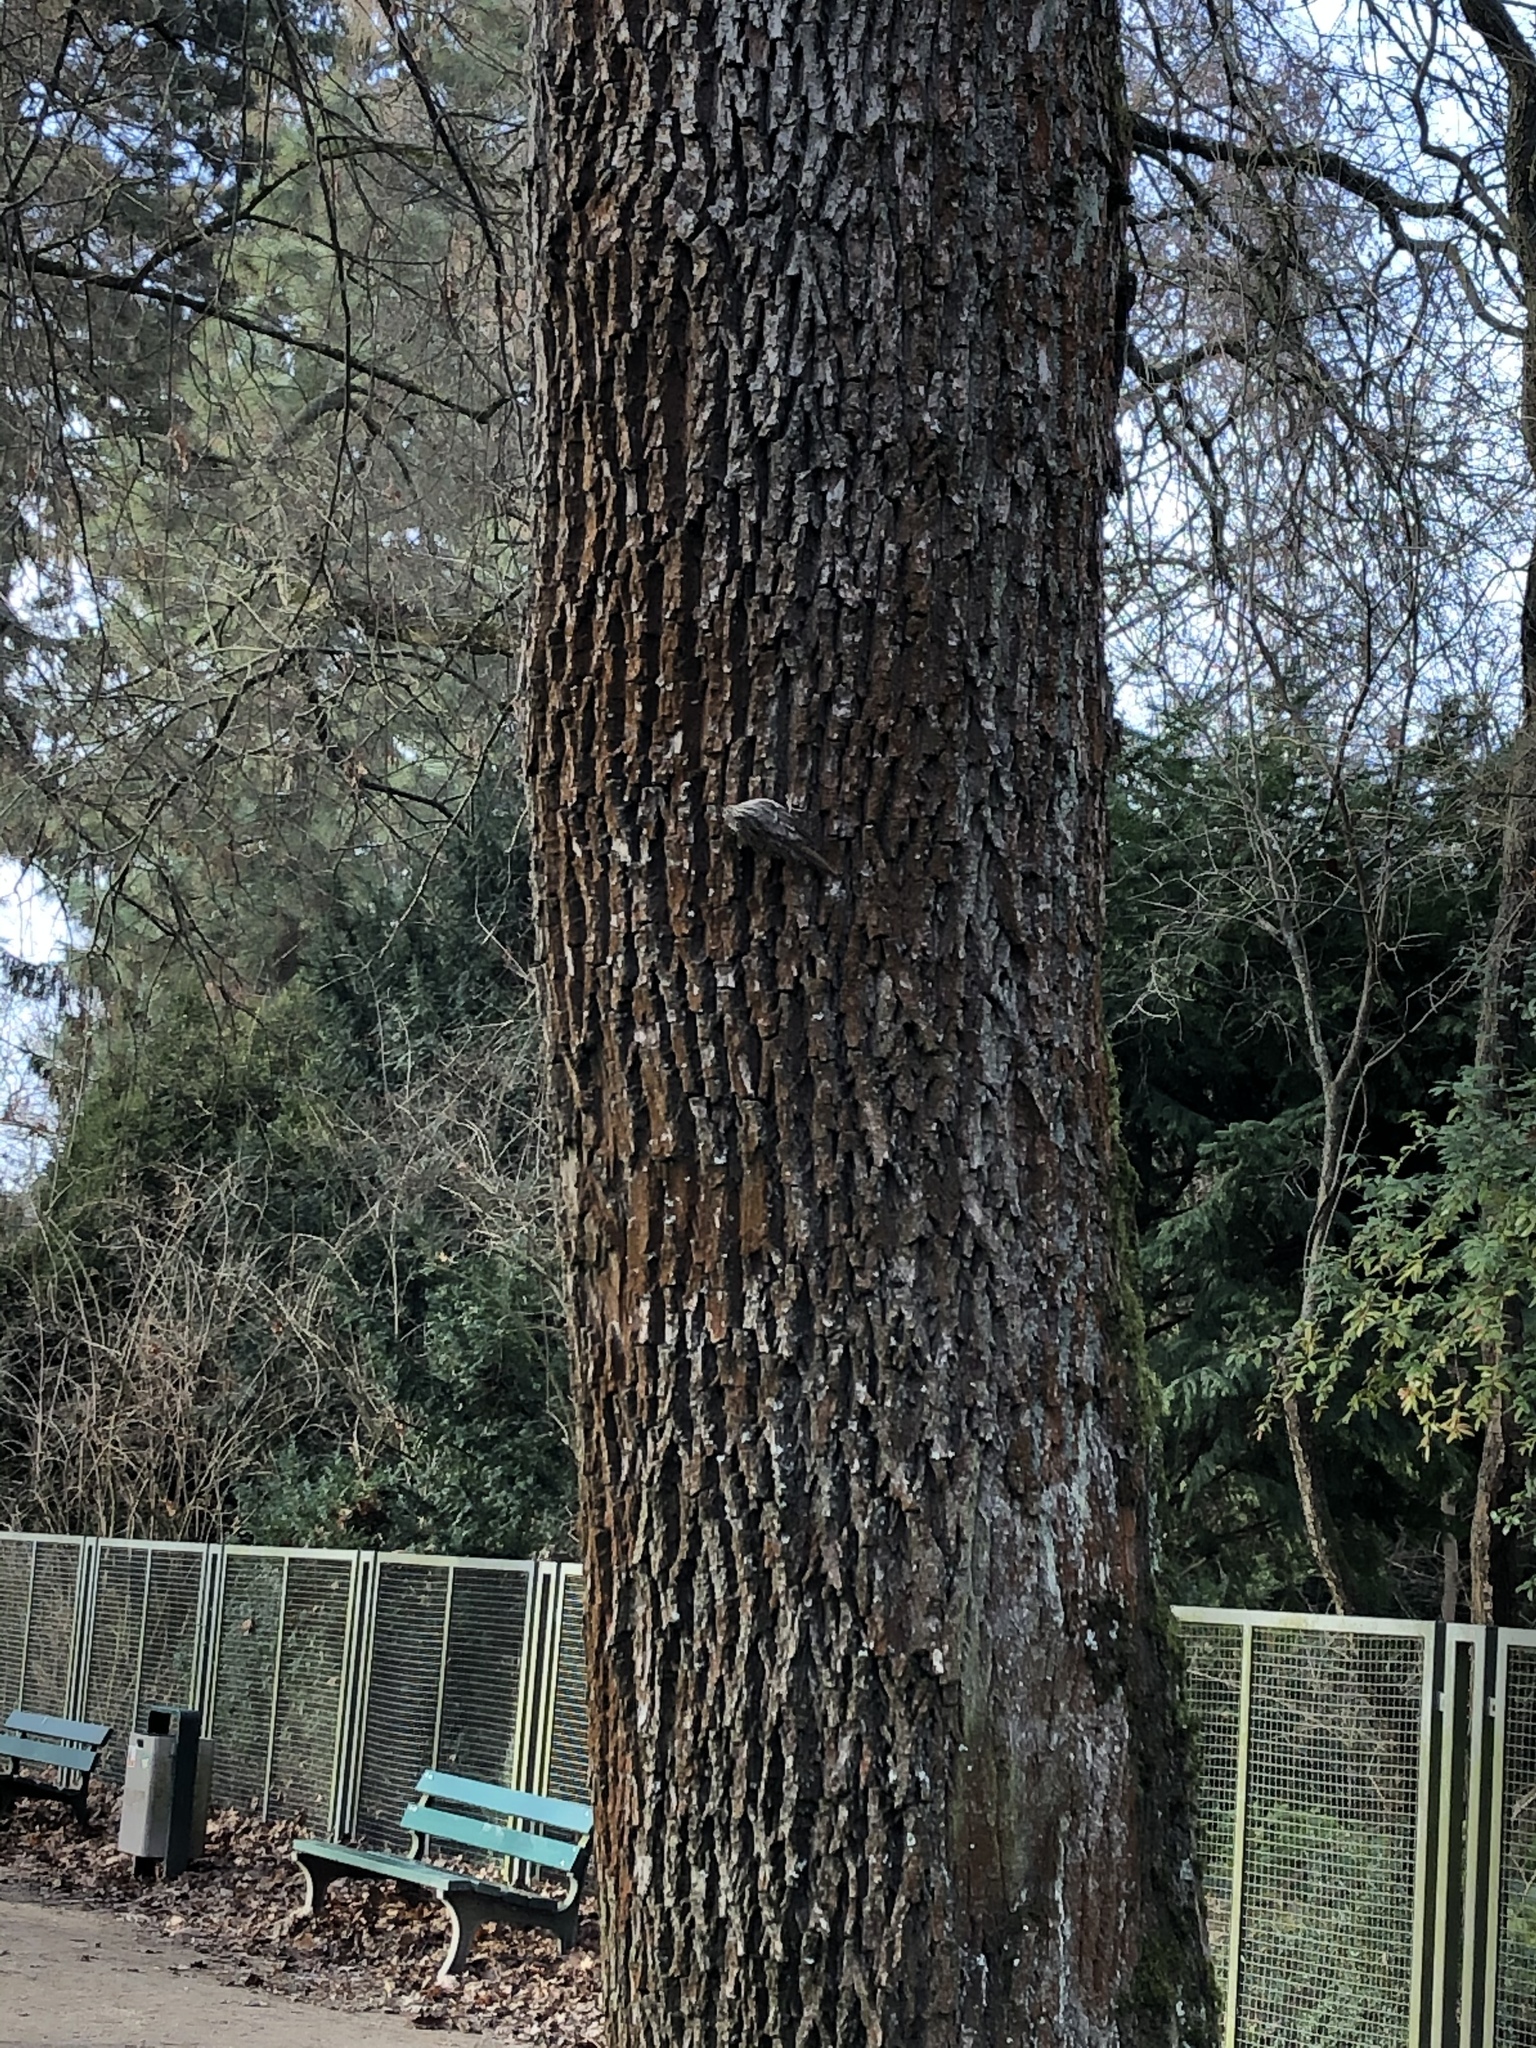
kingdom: Animalia
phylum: Chordata
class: Aves
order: Passeriformes
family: Certhiidae
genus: Certhia
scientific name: Certhia brachydactyla
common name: Short-toed treecreeper
